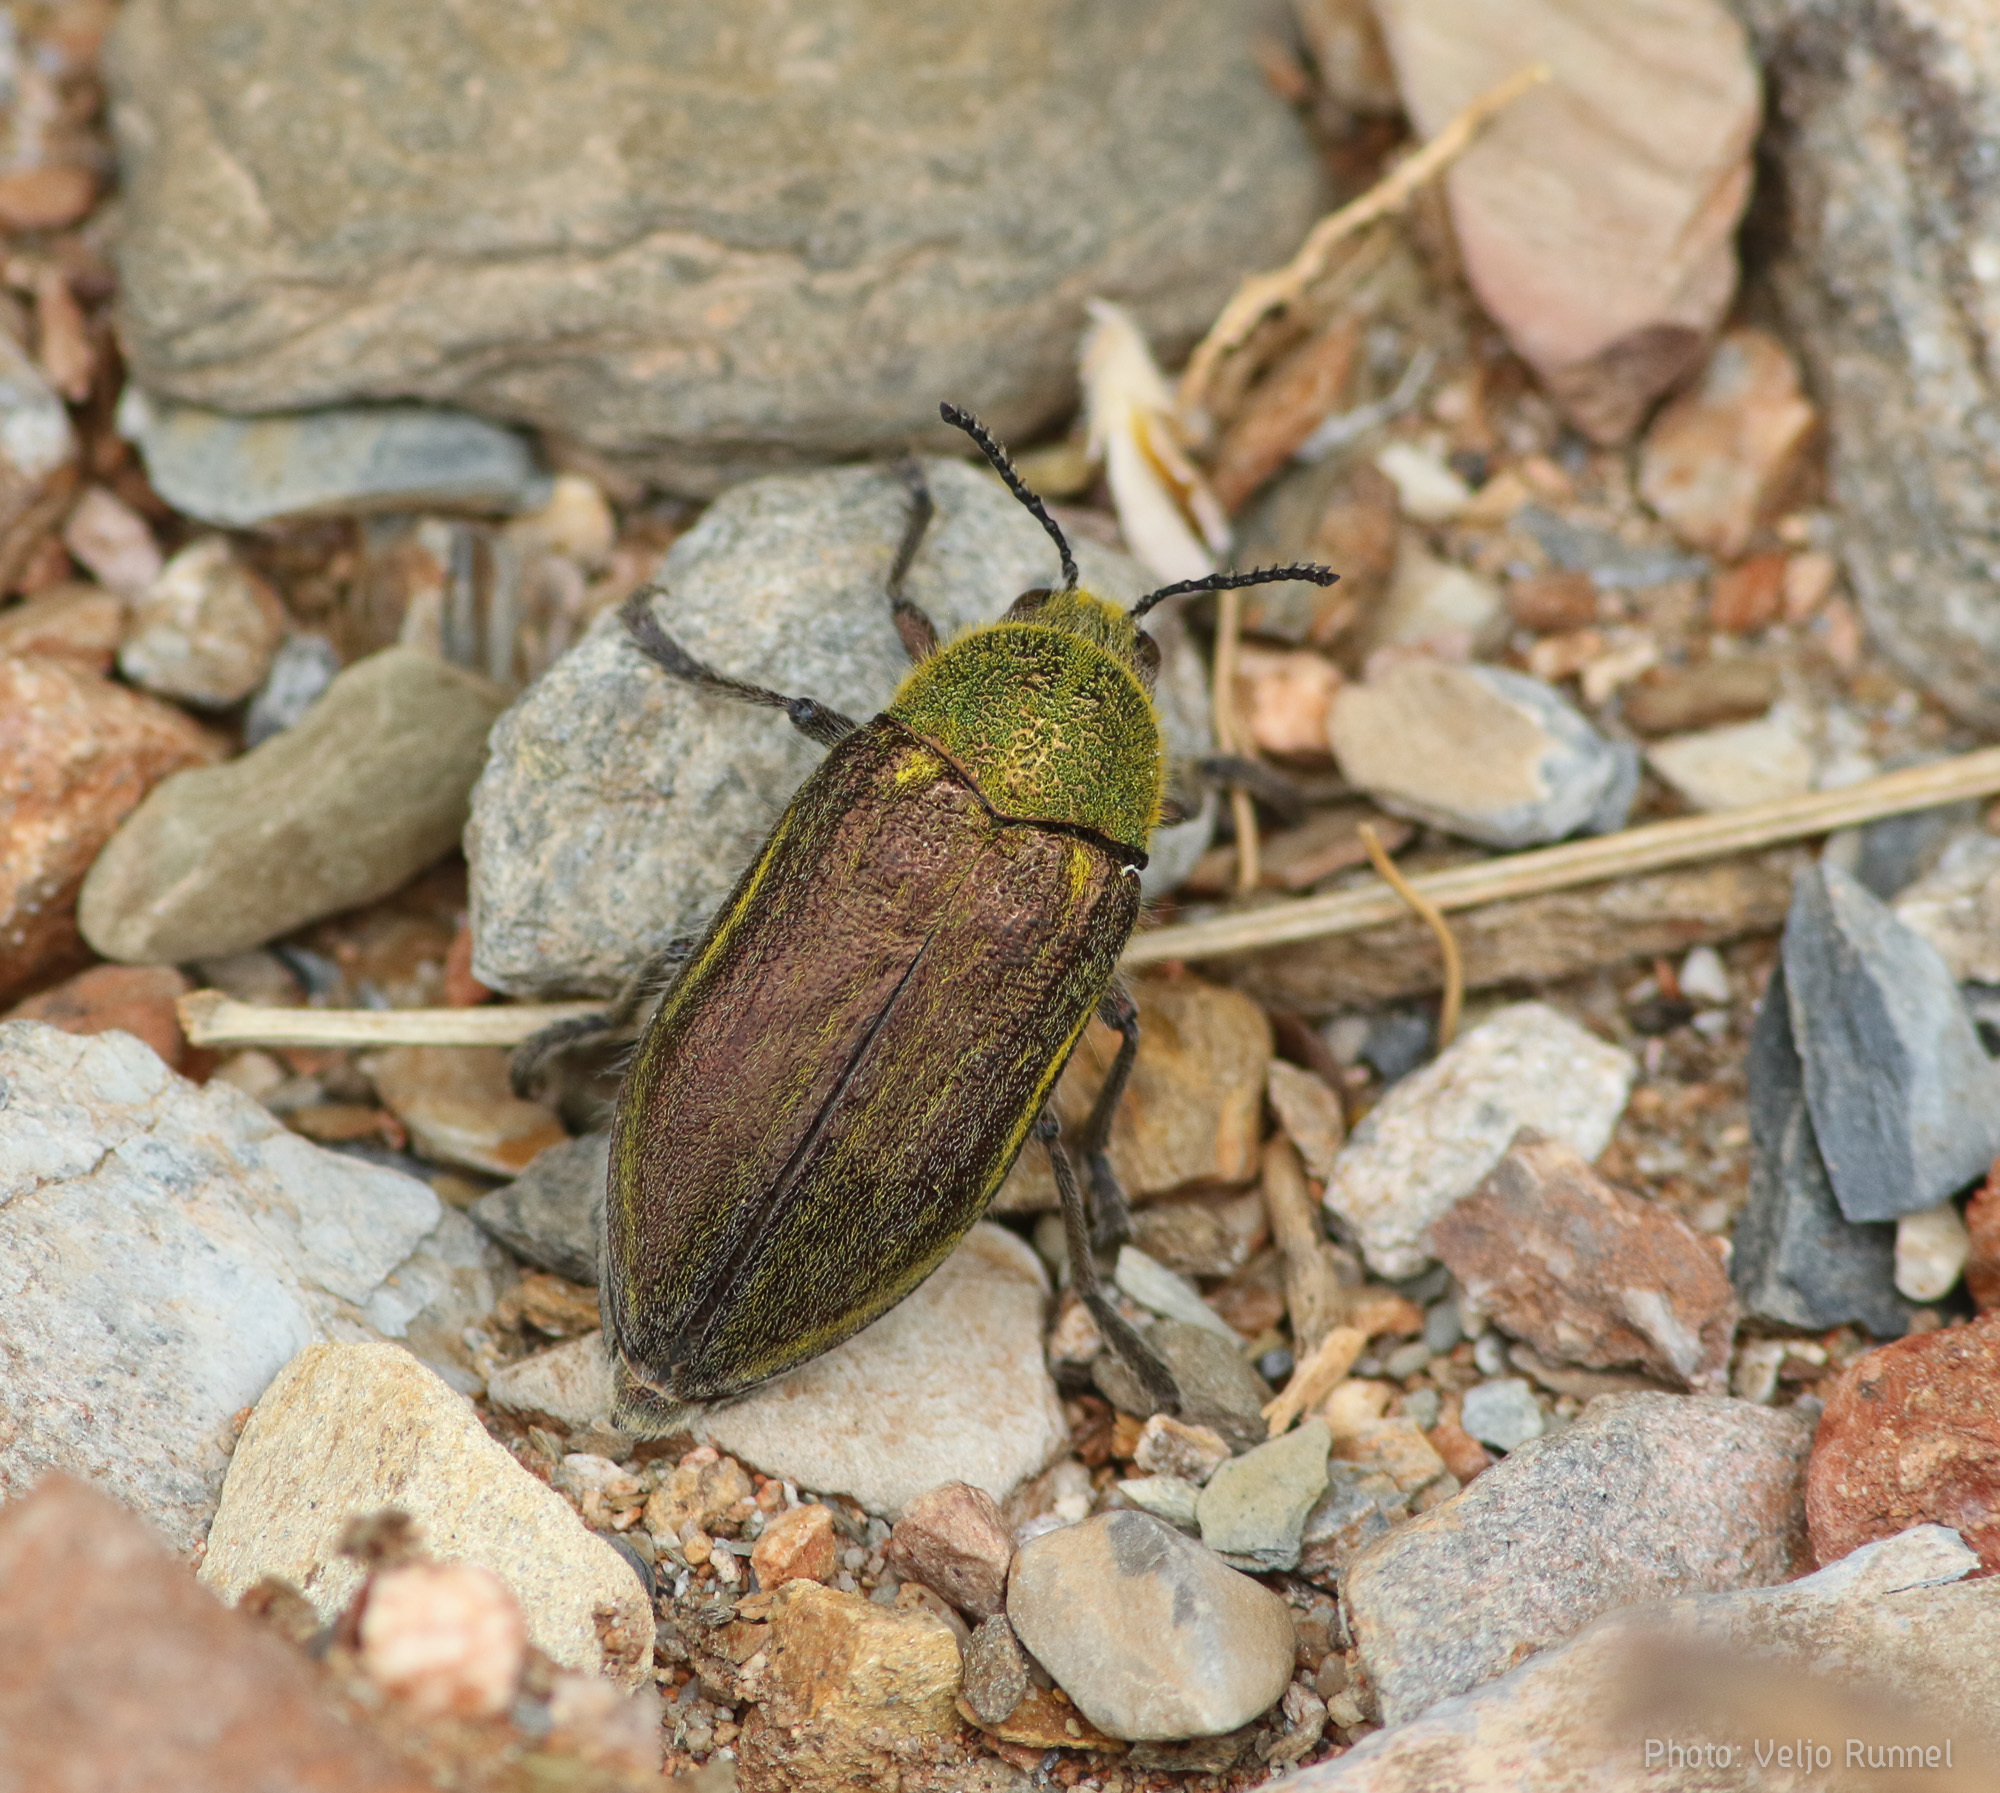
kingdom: Animalia
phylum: Arthropoda
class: Insecta
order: Coleoptera
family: Buprestidae
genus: Julodis
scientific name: Julodis pubescens
